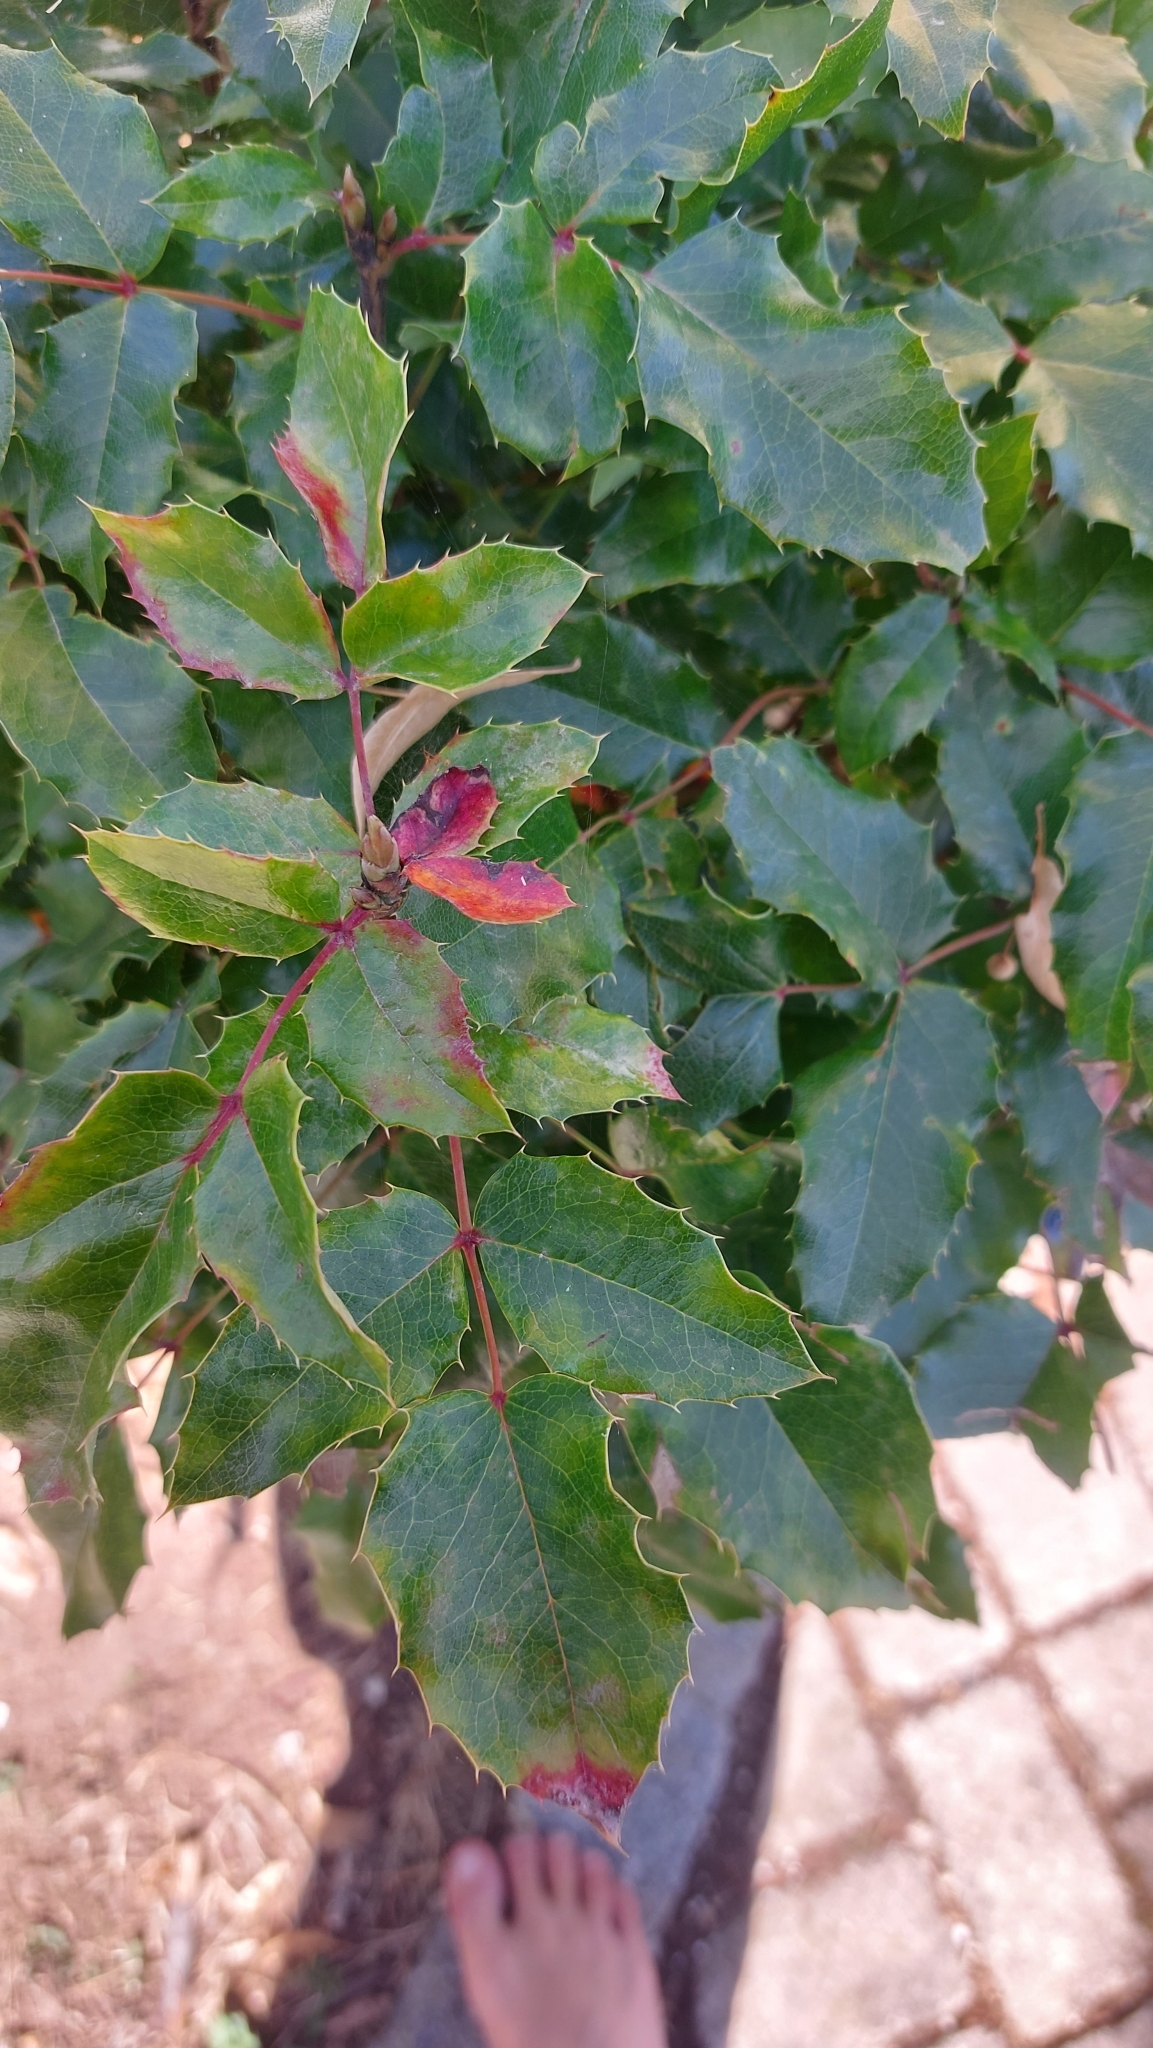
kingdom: Plantae
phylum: Tracheophyta
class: Magnoliopsida
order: Ranunculales
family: Berberidaceae
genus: Mahonia
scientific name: Mahonia aquifolium
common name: Oregon-grape
